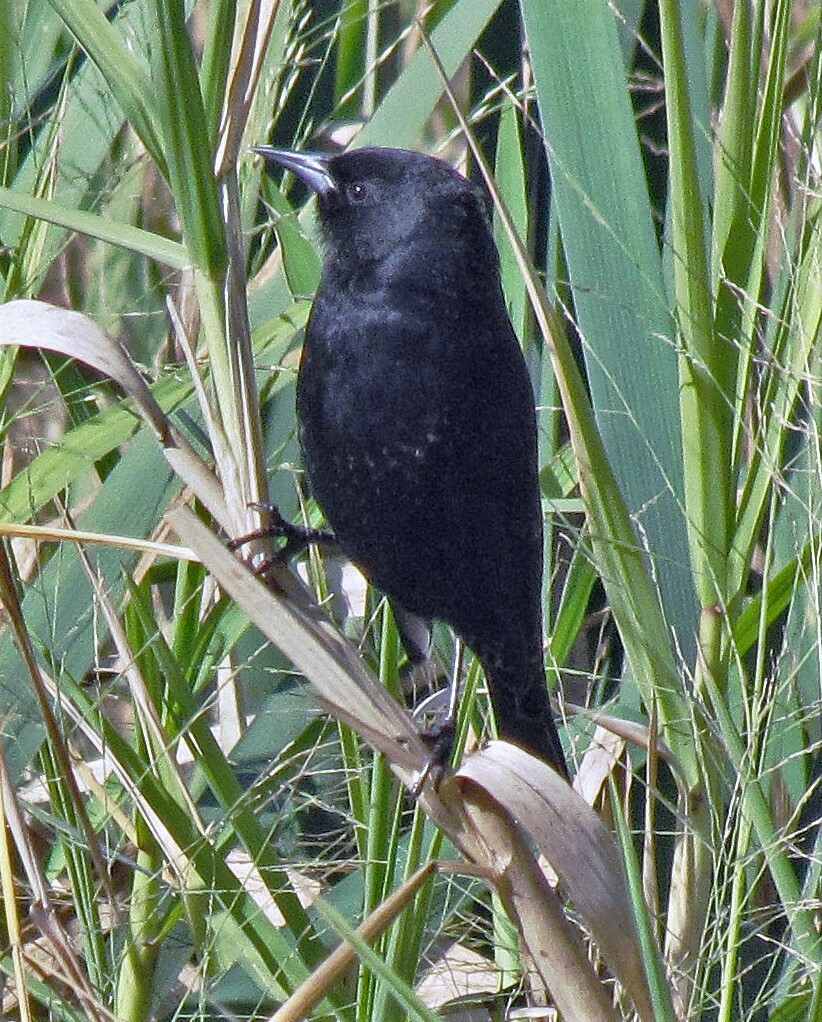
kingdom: Animalia
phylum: Chordata
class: Aves
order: Passeriformes
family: Icteridae
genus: Agelasticus
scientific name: Agelasticus thilius
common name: Yellow-winged blackbird
